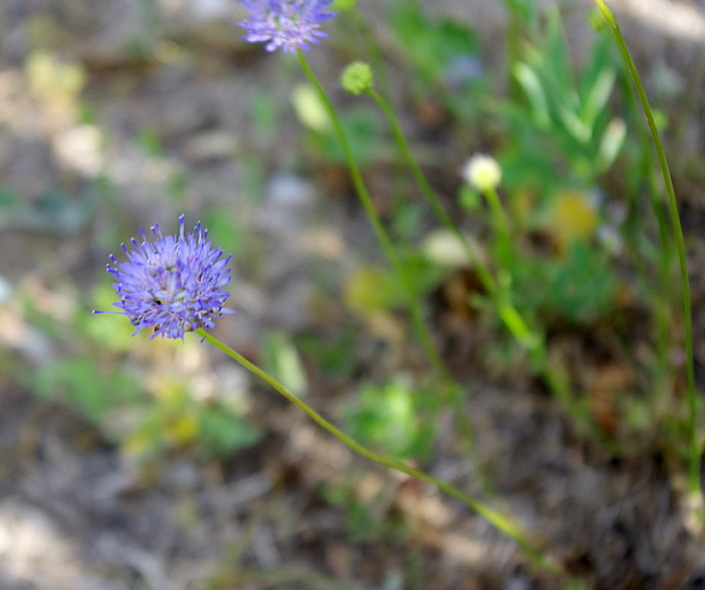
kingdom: Plantae
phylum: Tracheophyta
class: Magnoliopsida
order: Asterales
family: Campanulaceae
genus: Jasione
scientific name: Jasione montana
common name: Sheep's-bit
